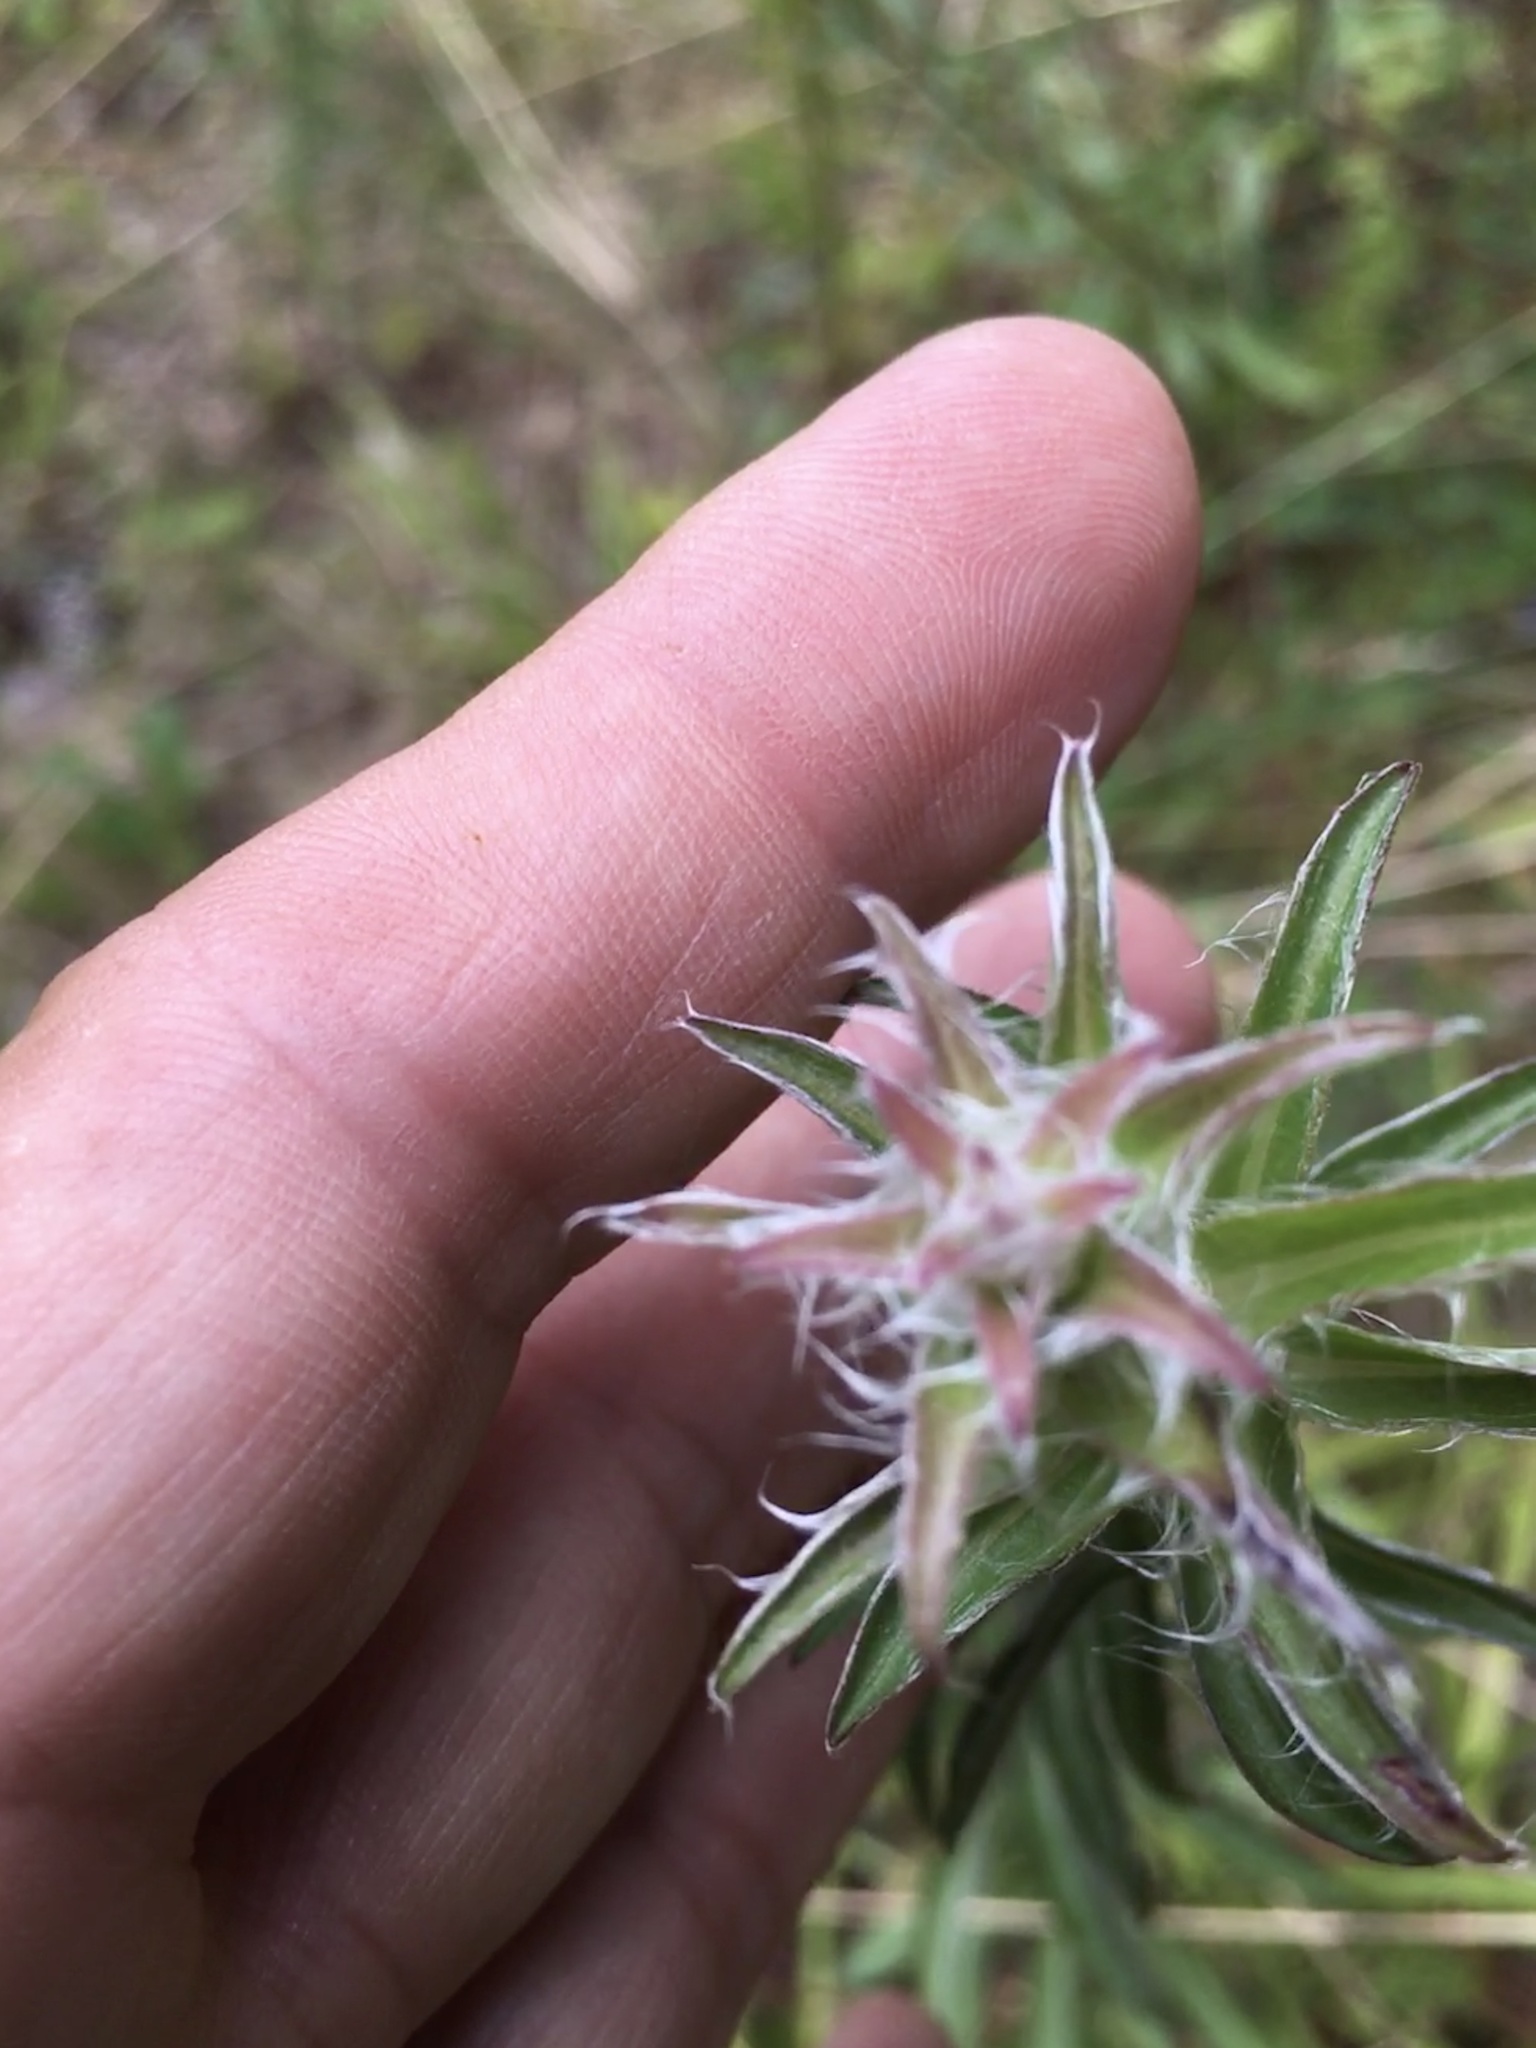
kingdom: Plantae
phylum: Tracheophyta
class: Magnoliopsida
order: Asterales
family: Asteraceae
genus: Chrysopsis
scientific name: Chrysopsis mariana
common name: Maryland golden-aster
